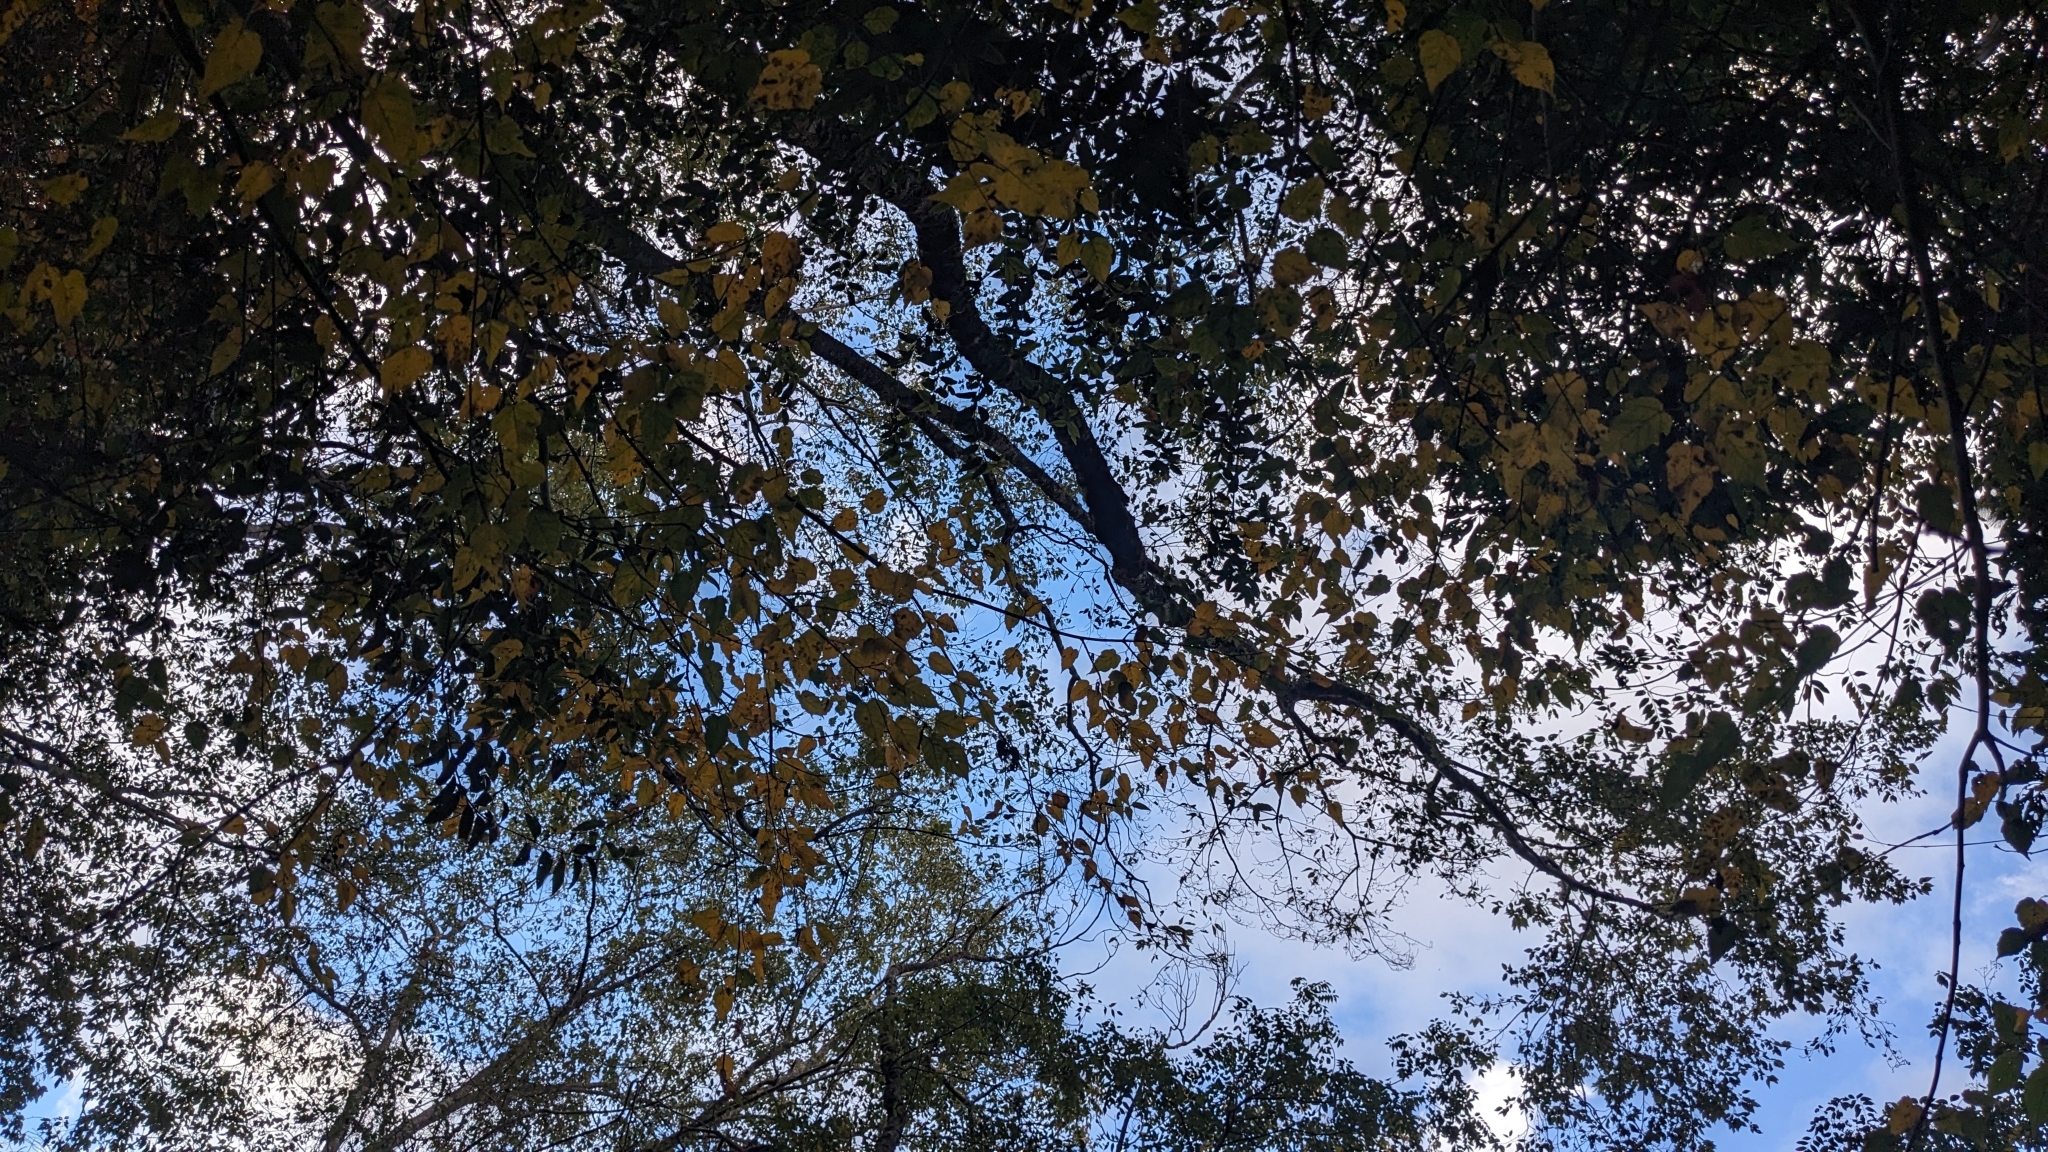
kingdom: Plantae
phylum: Tracheophyta
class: Magnoliopsida
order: Sapindales
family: Sapindaceae
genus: Acer
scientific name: Acer caudatifolium
